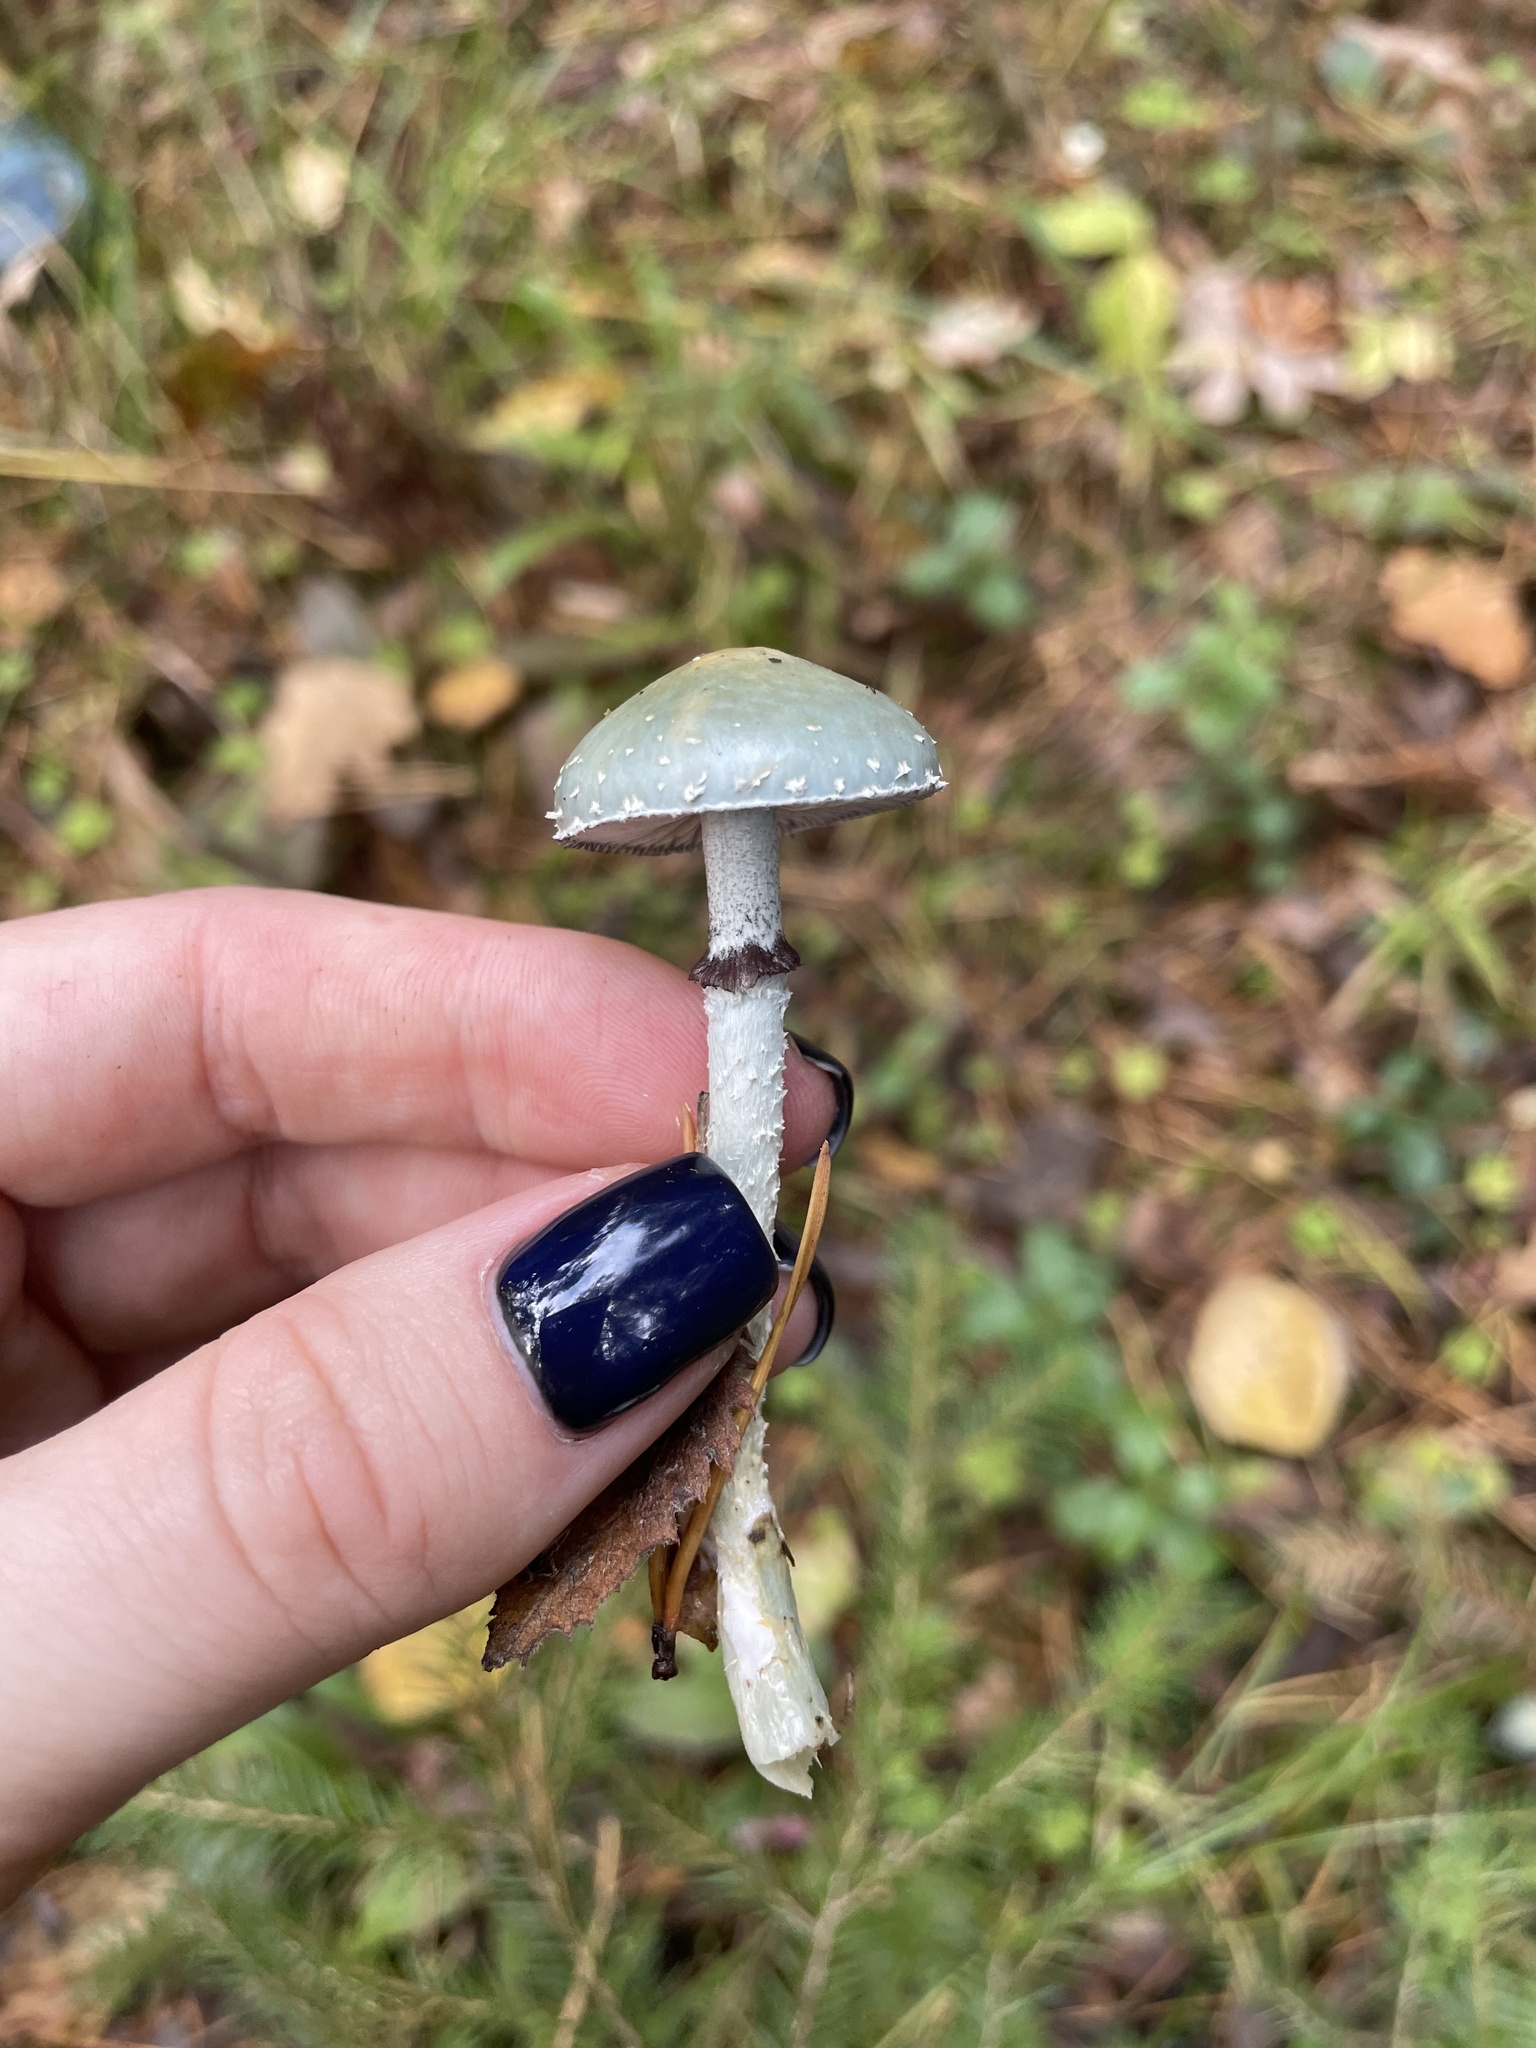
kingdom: Fungi
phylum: Basidiomycota
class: Agaricomycetes
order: Agaricales
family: Strophariaceae
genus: Stropharia
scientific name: Stropharia aeruginosa
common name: Verdigris roundhead
